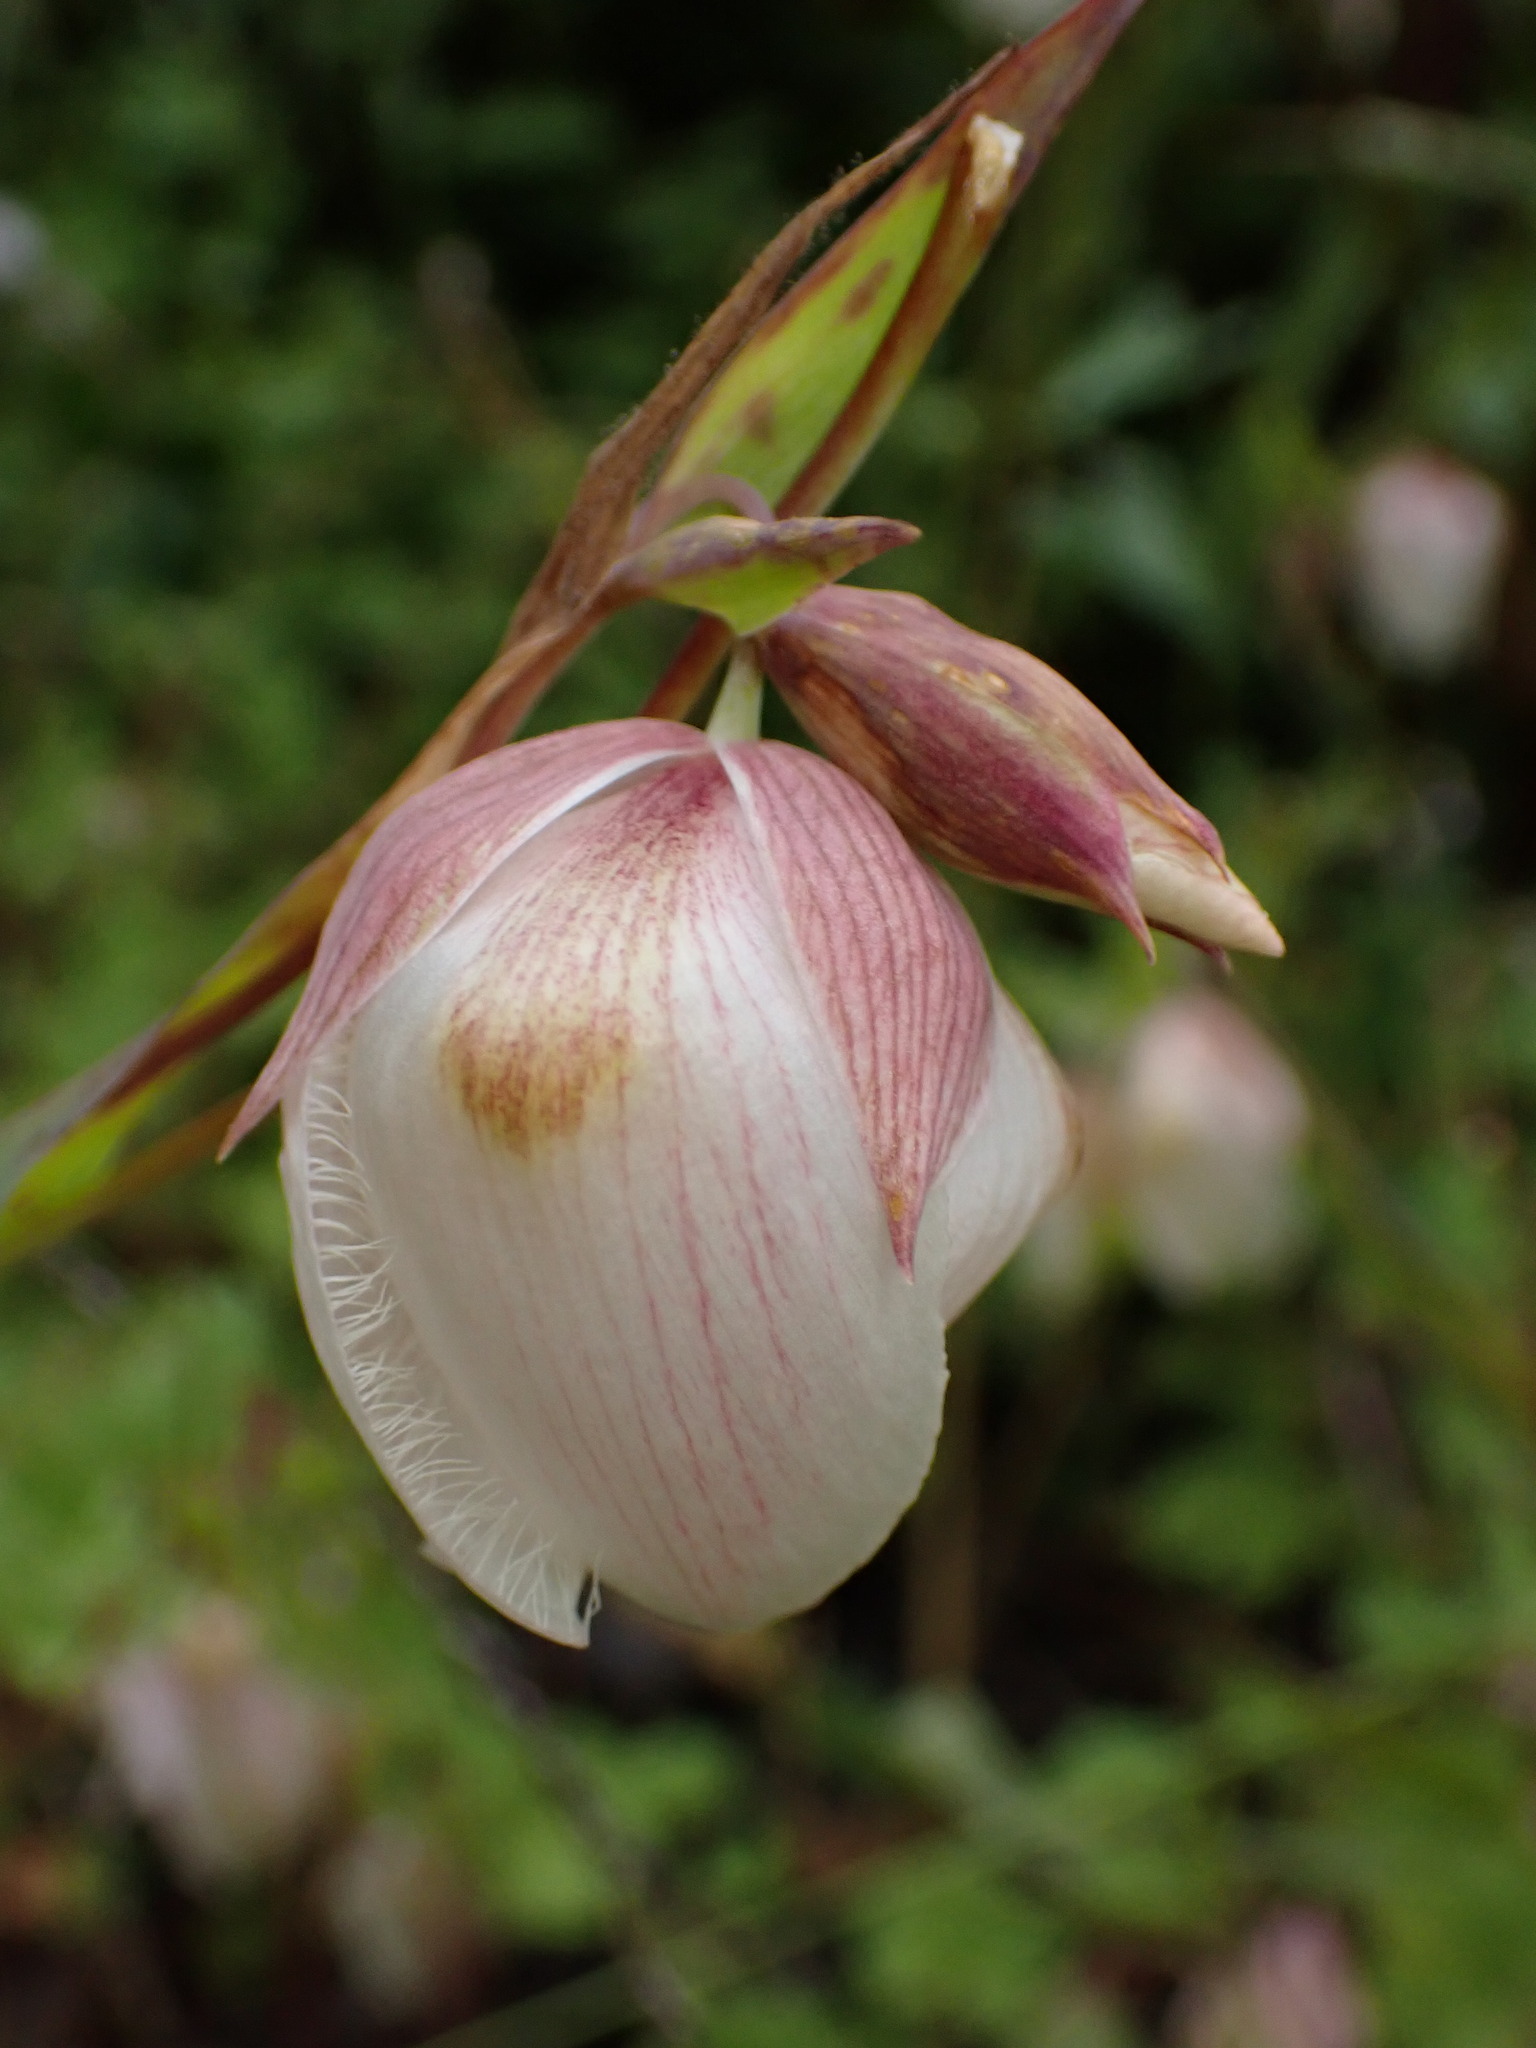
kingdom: Plantae
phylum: Tracheophyta
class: Liliopsida
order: Liliales
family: Liliaceae
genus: Calochortus
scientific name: Calochortus albus
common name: Fairy-lantern
